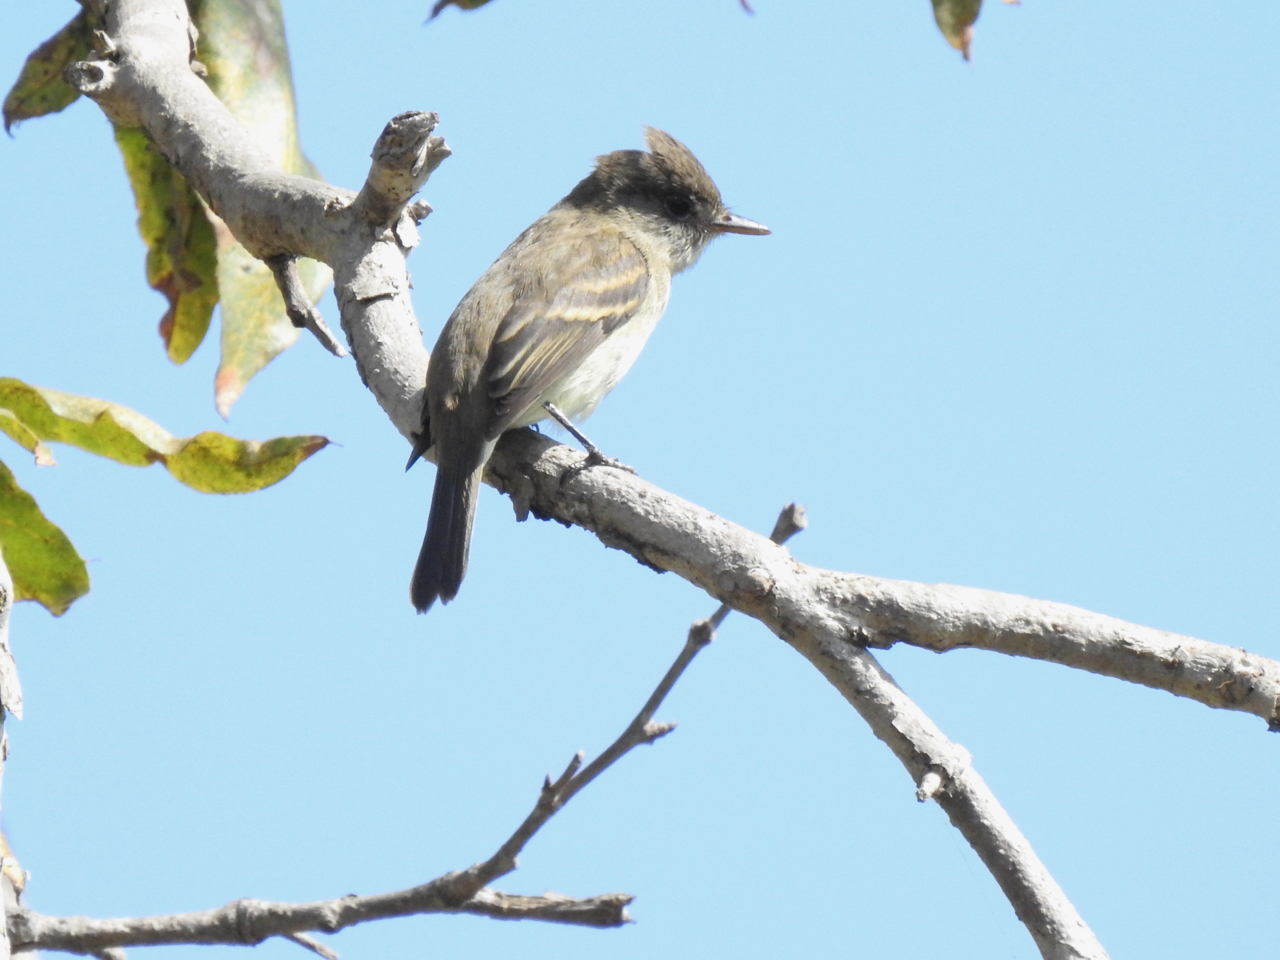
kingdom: Animalia
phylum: Chordata
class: Aves
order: Passeriformes
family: Tyrannidae
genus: Empidonax
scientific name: Empidonax traillii
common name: Willow flycatcher
